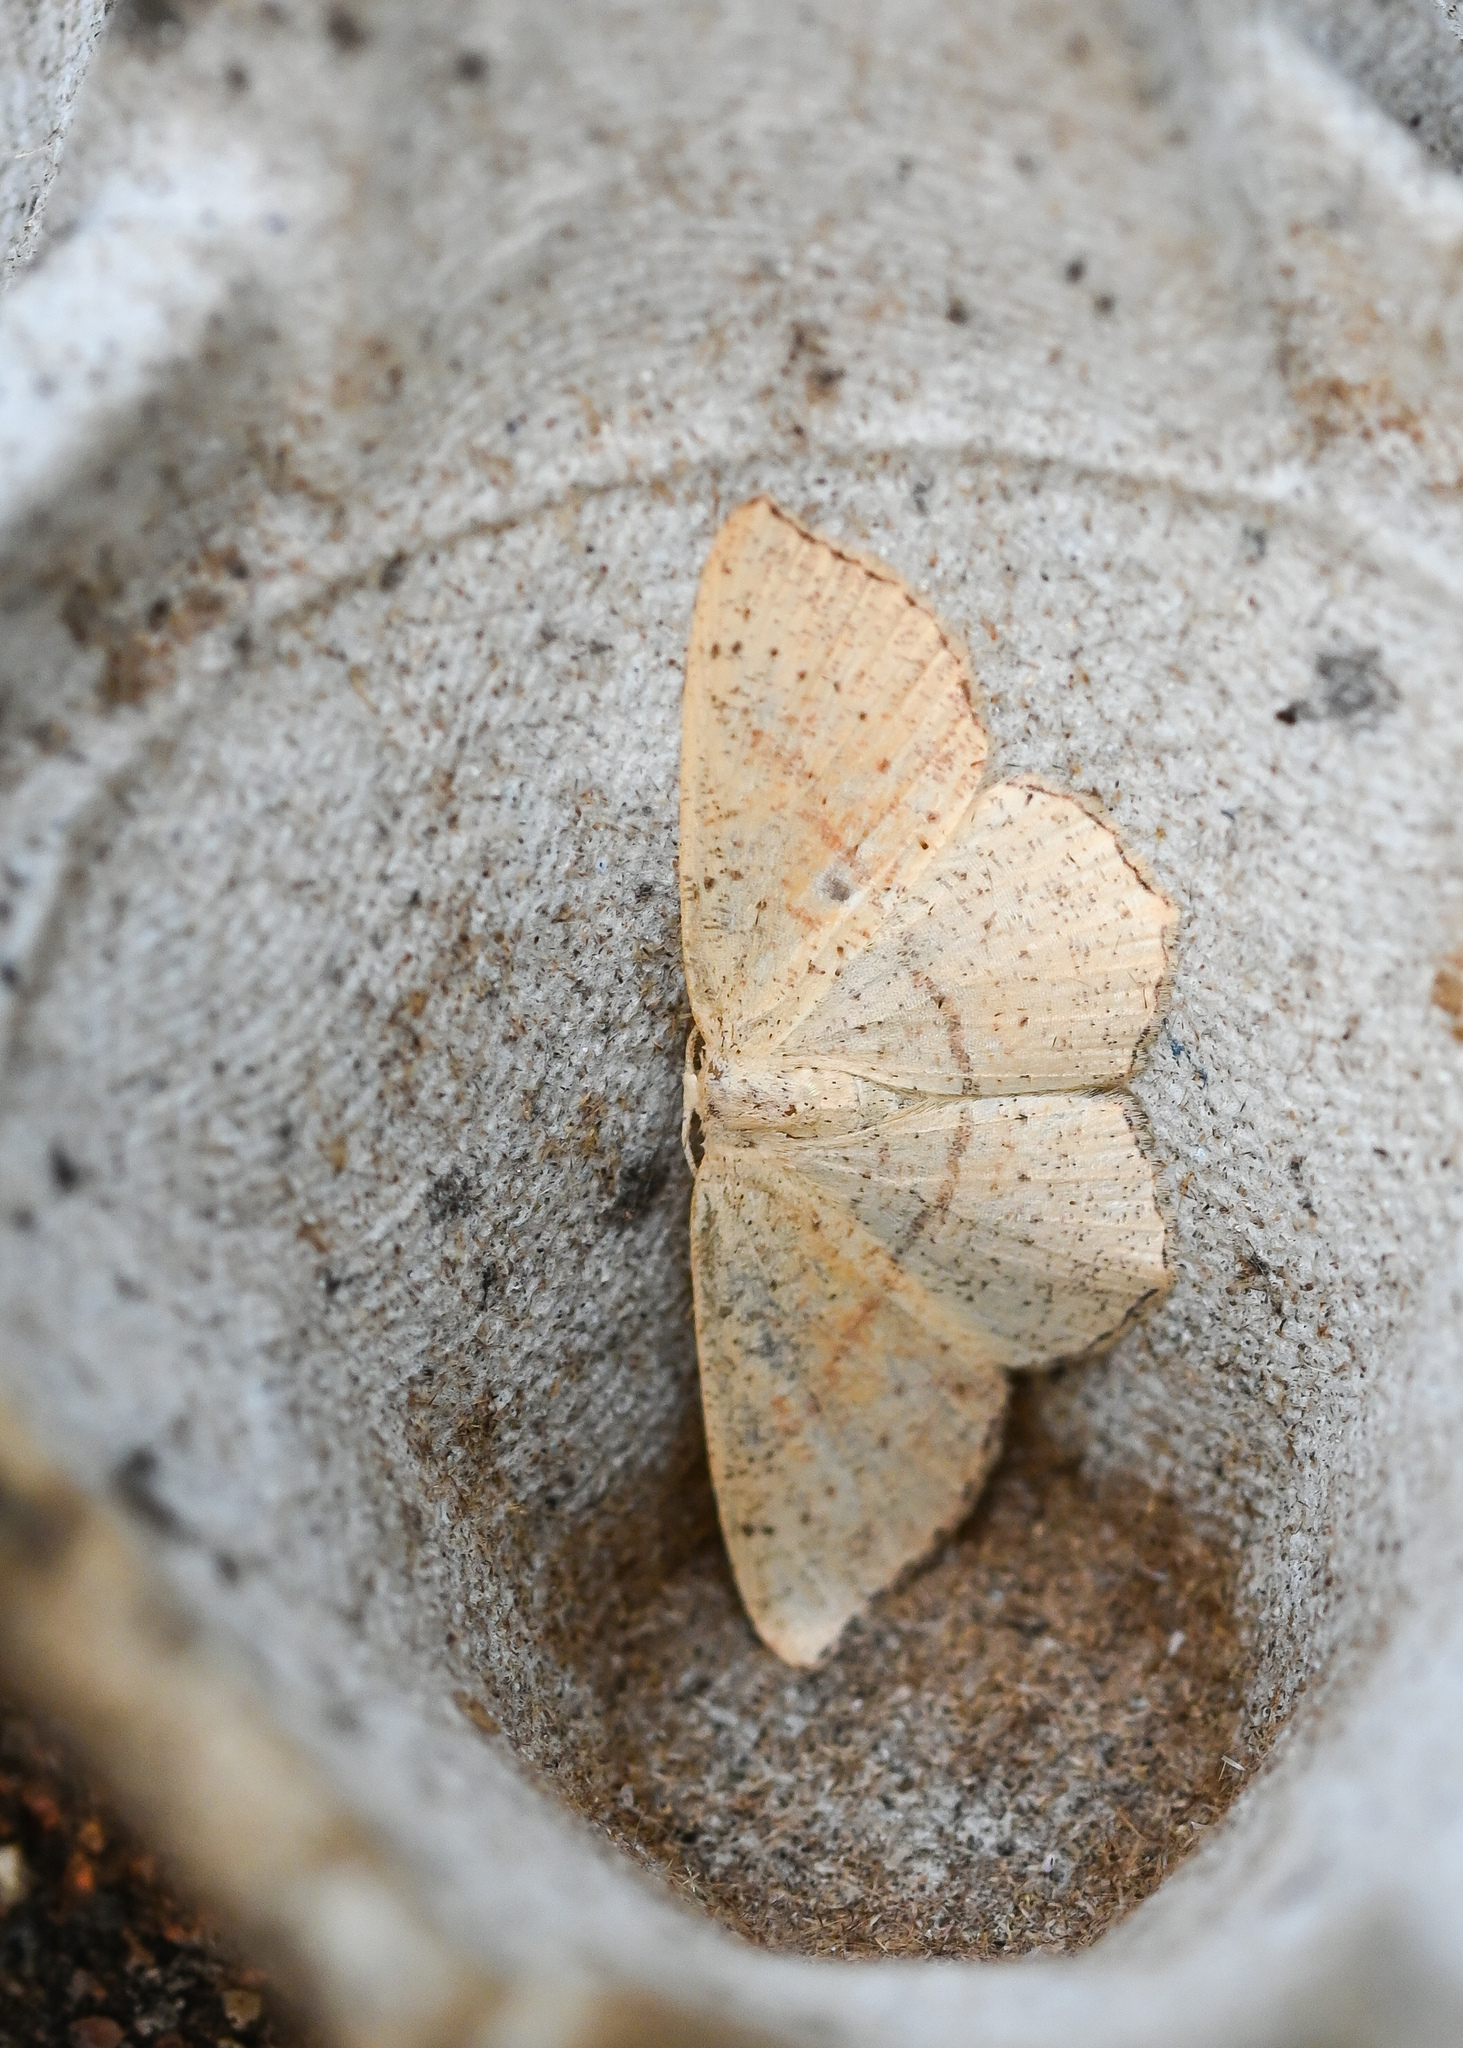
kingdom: Animalia
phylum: Arthropoda
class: Insecta
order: Lepidoptera
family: Geometridae
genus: Cyclophora
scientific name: Cyclophora punctaria
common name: Maiden's blush
